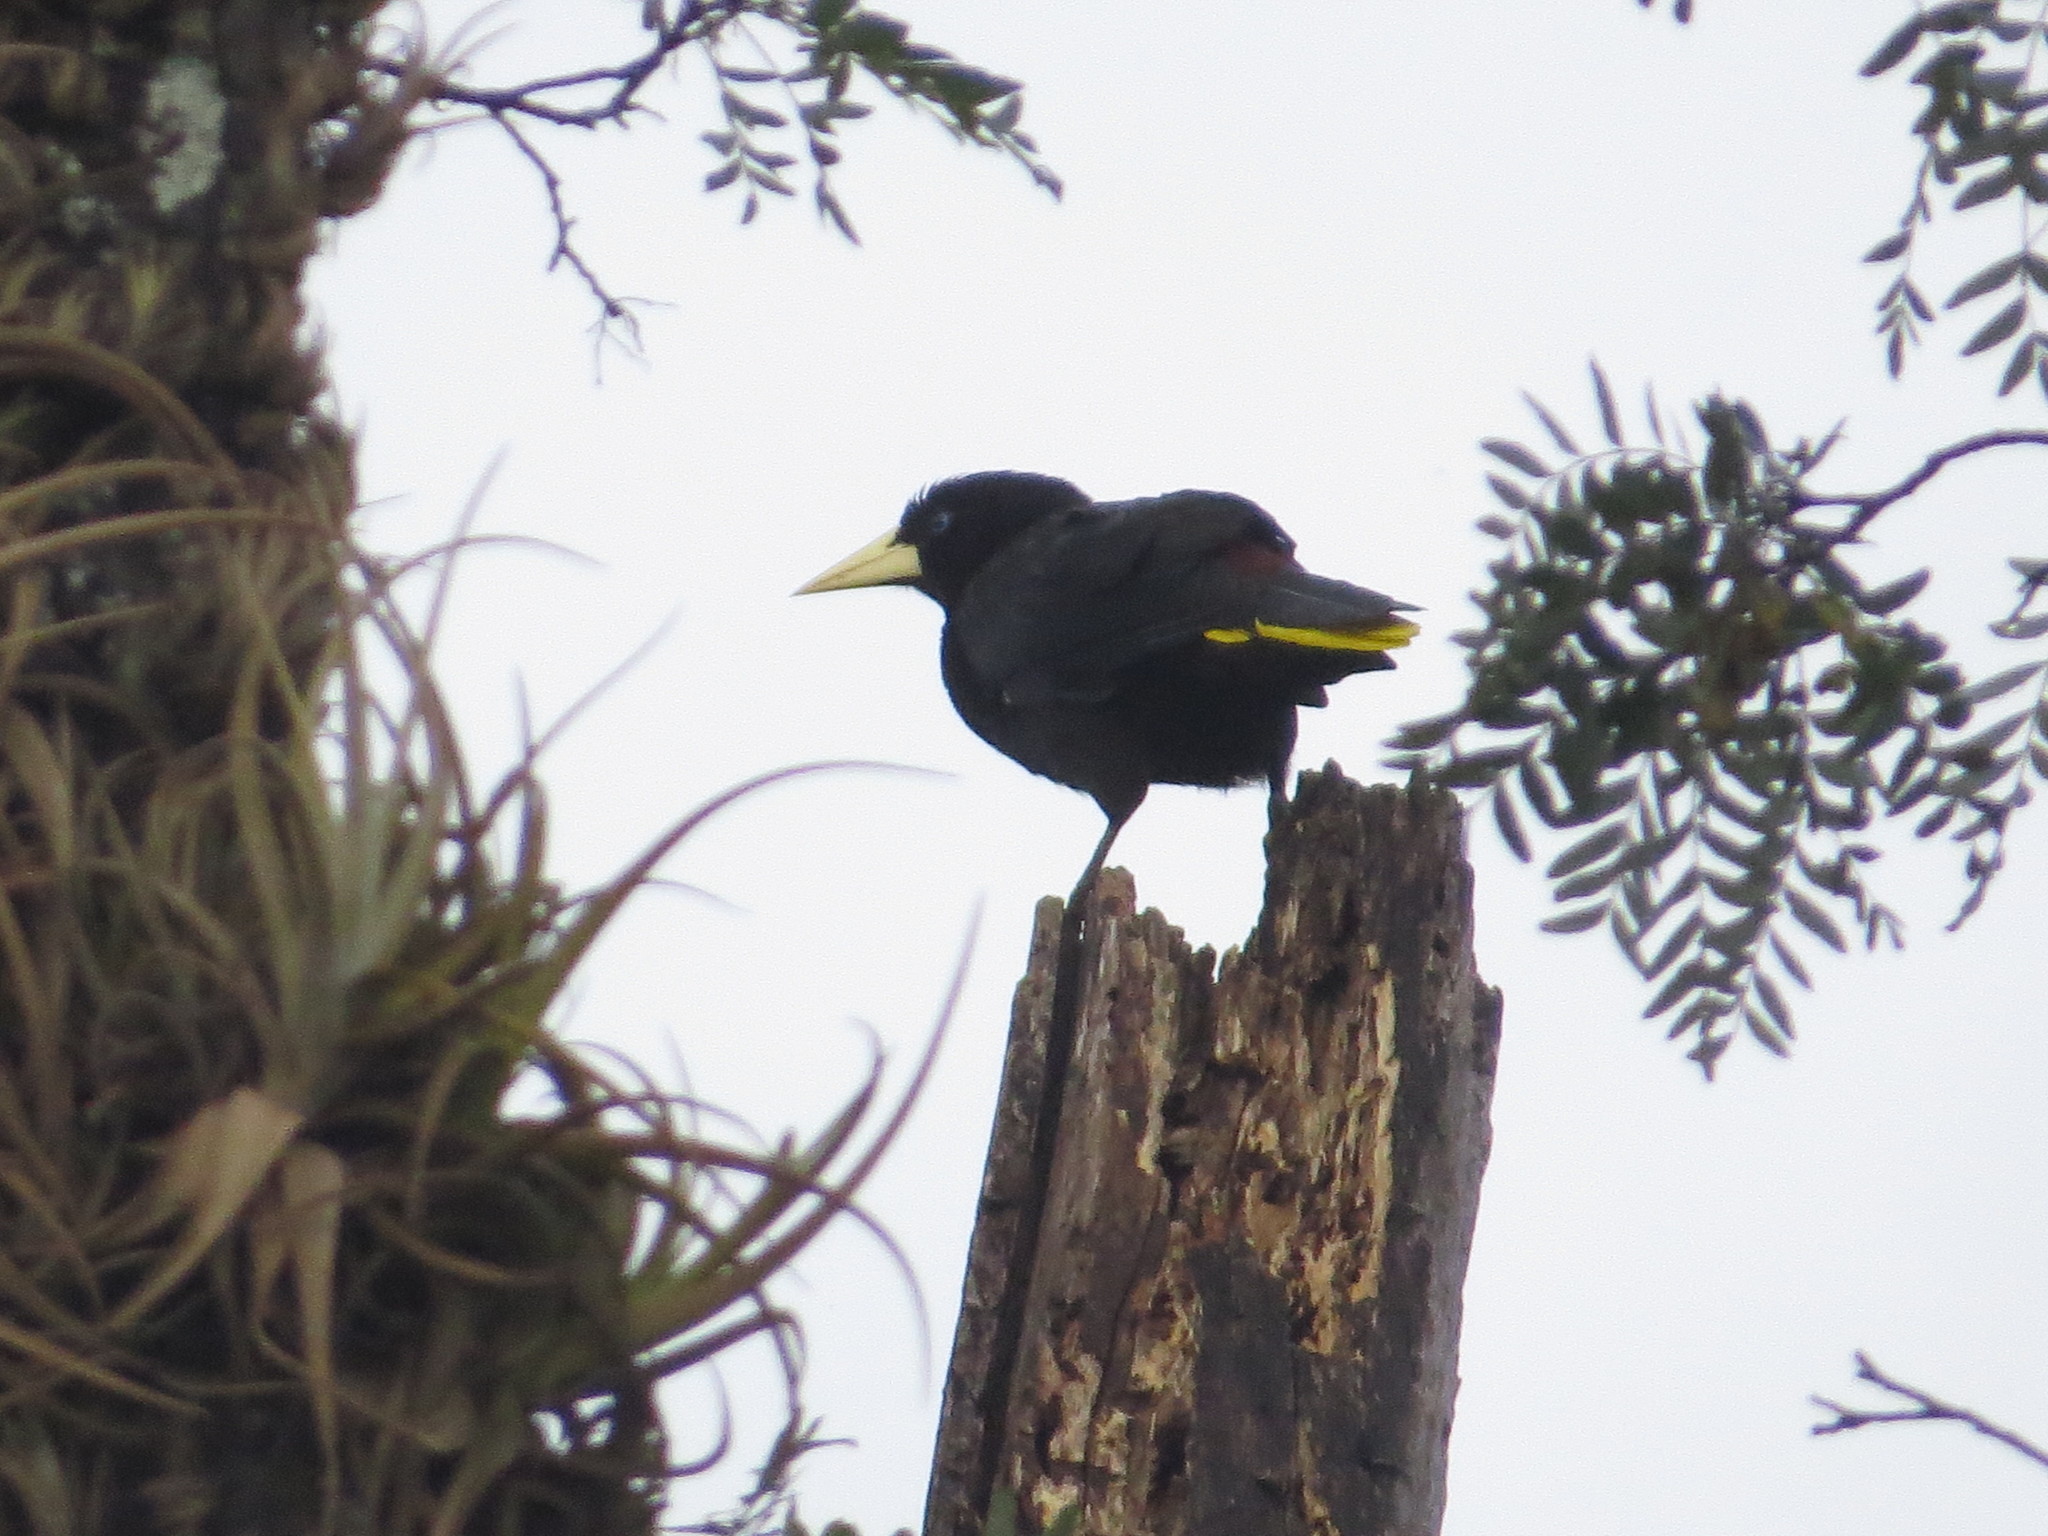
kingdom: Animalia
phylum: Chordata
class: Aves
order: Passeriformes
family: Icteridae
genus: Psarocolius
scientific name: Psarocolius decumanus
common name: Crested oropendola
